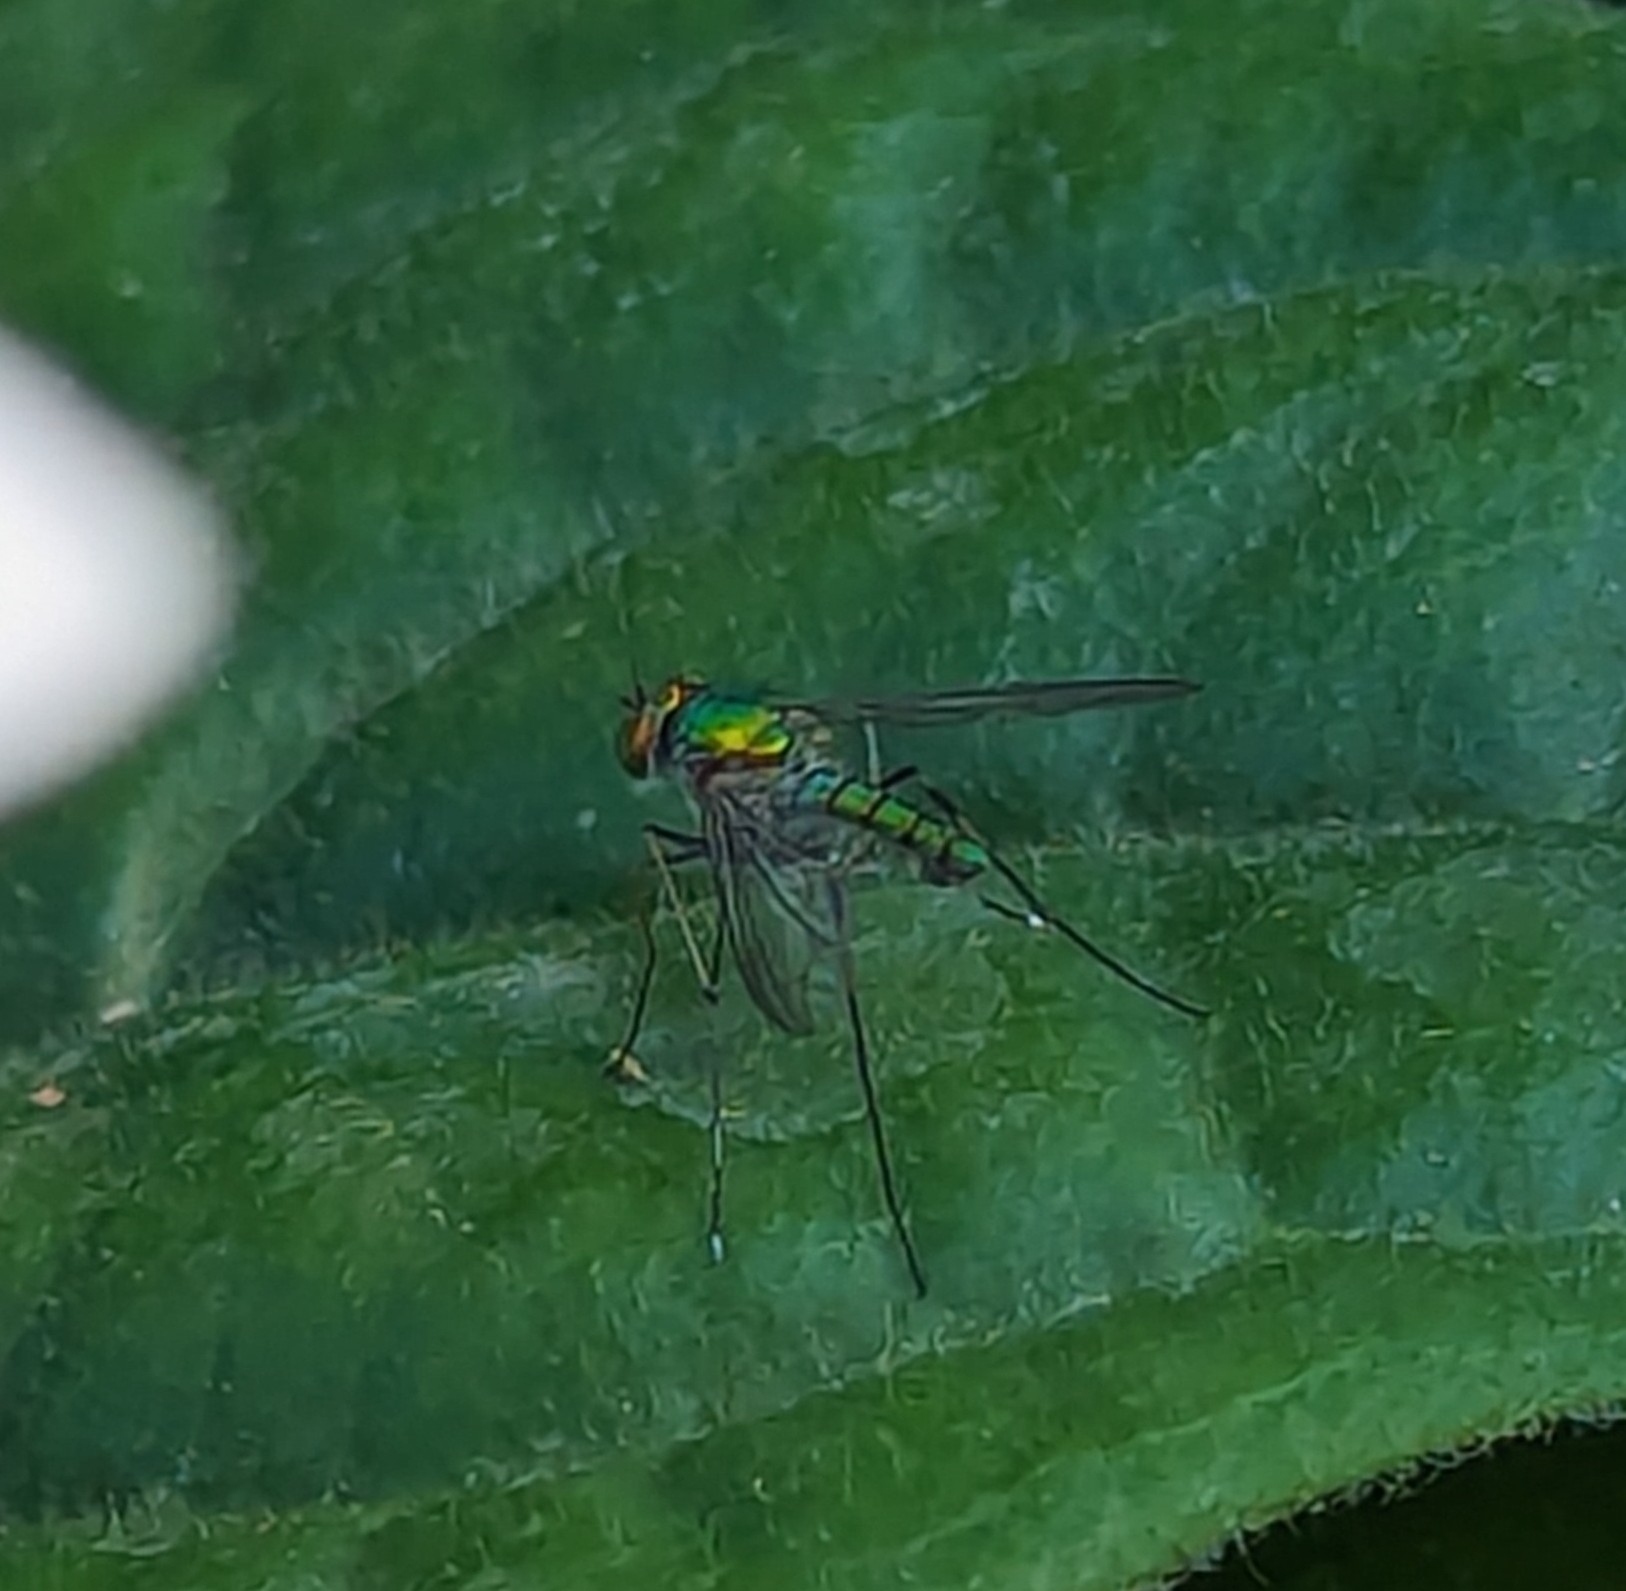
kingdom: Animalia
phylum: Arthropoda
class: Insecta
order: Diptera
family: Dolichopodidae
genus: Chrysosoma
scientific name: Chrysosoma leucopogon
